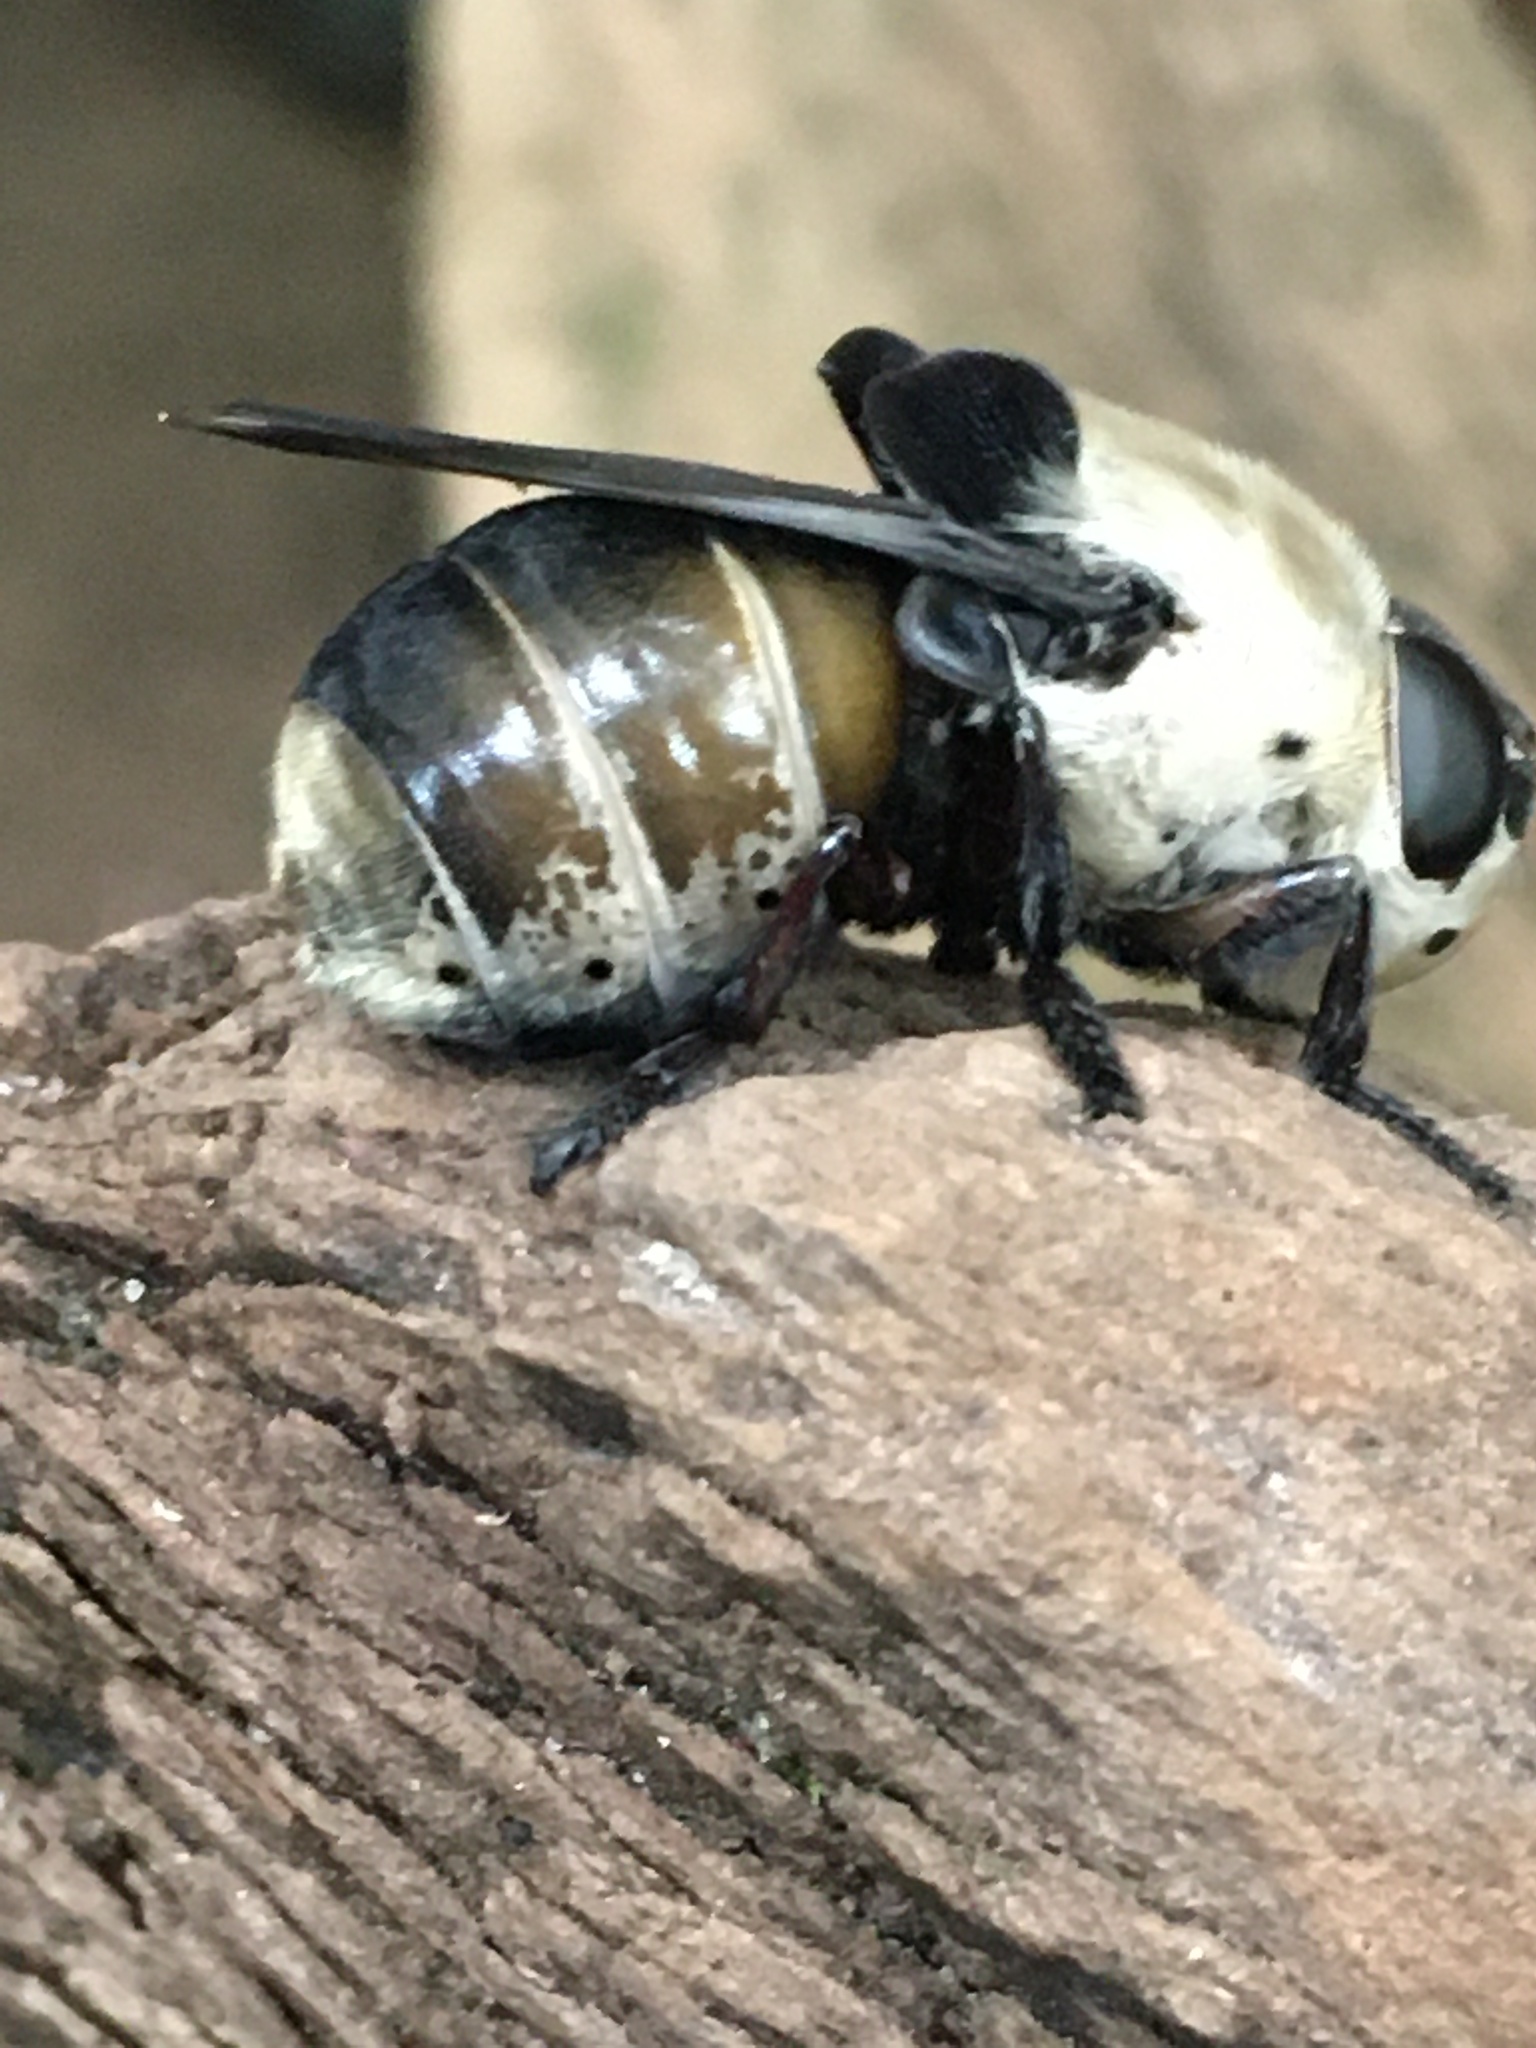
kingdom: Animalia
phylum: Arthropoda
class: Insecta
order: Diptera
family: Oestridae
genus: Cuterebra
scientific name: Cuterebra emasculator
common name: Squirrel bot fly
